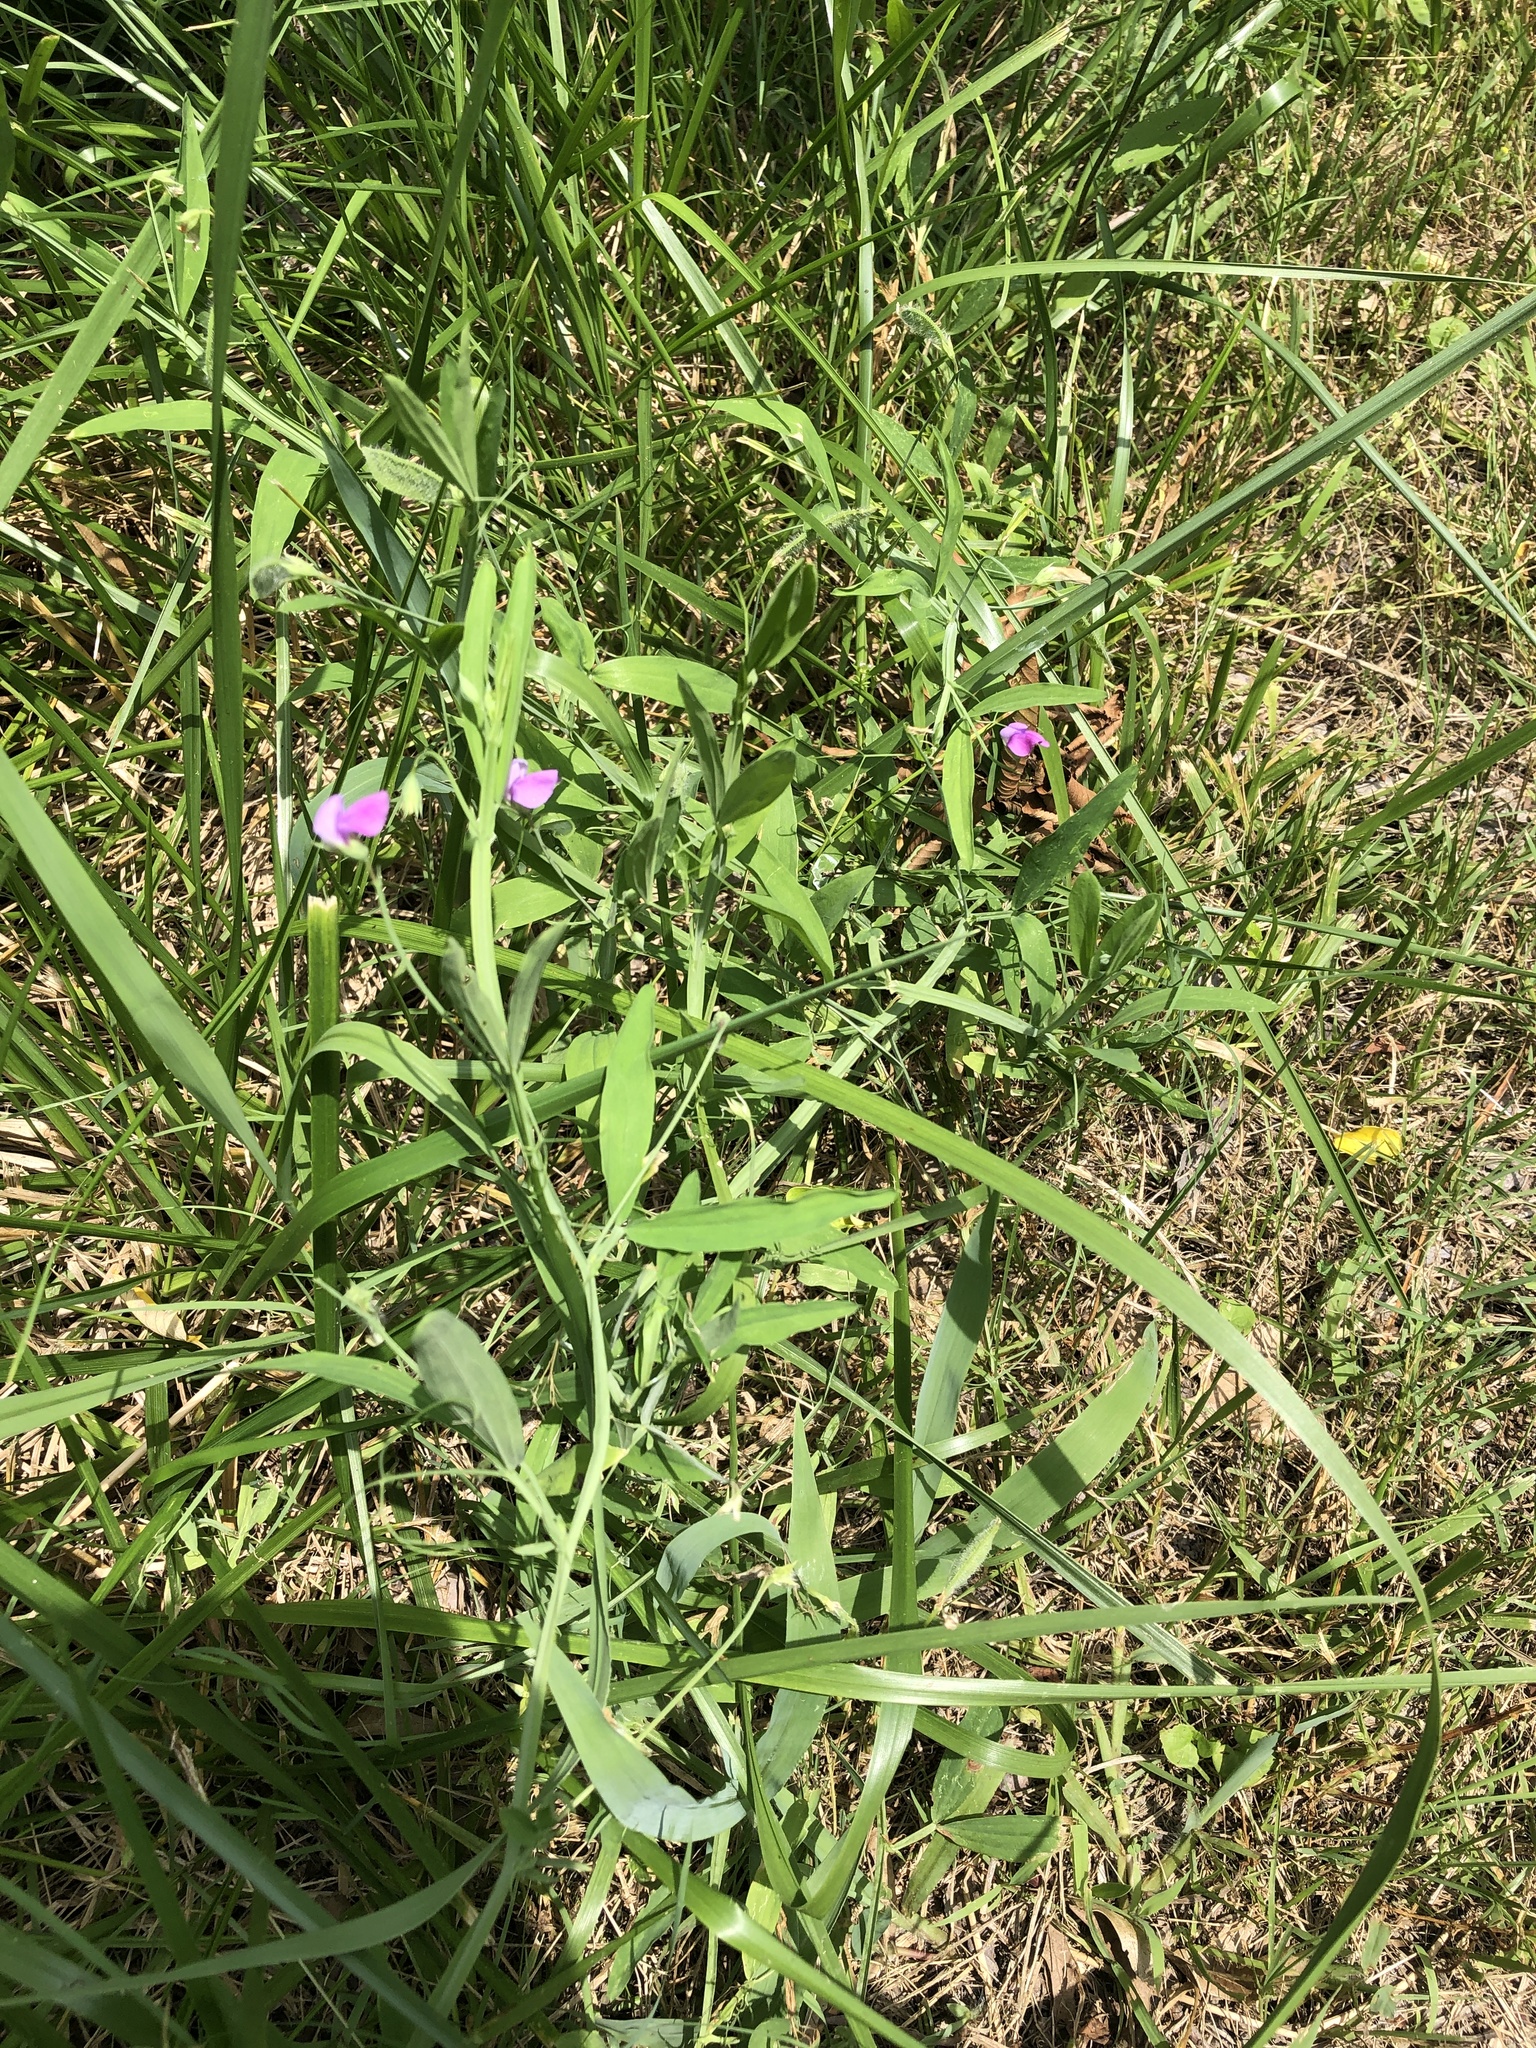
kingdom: Plantae
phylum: Tracheophyta
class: Magnoliopsida
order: Fabales
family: Fabaceae
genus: Lathyrus
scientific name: Lathyrus hirsutus
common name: Hairy vetchling
